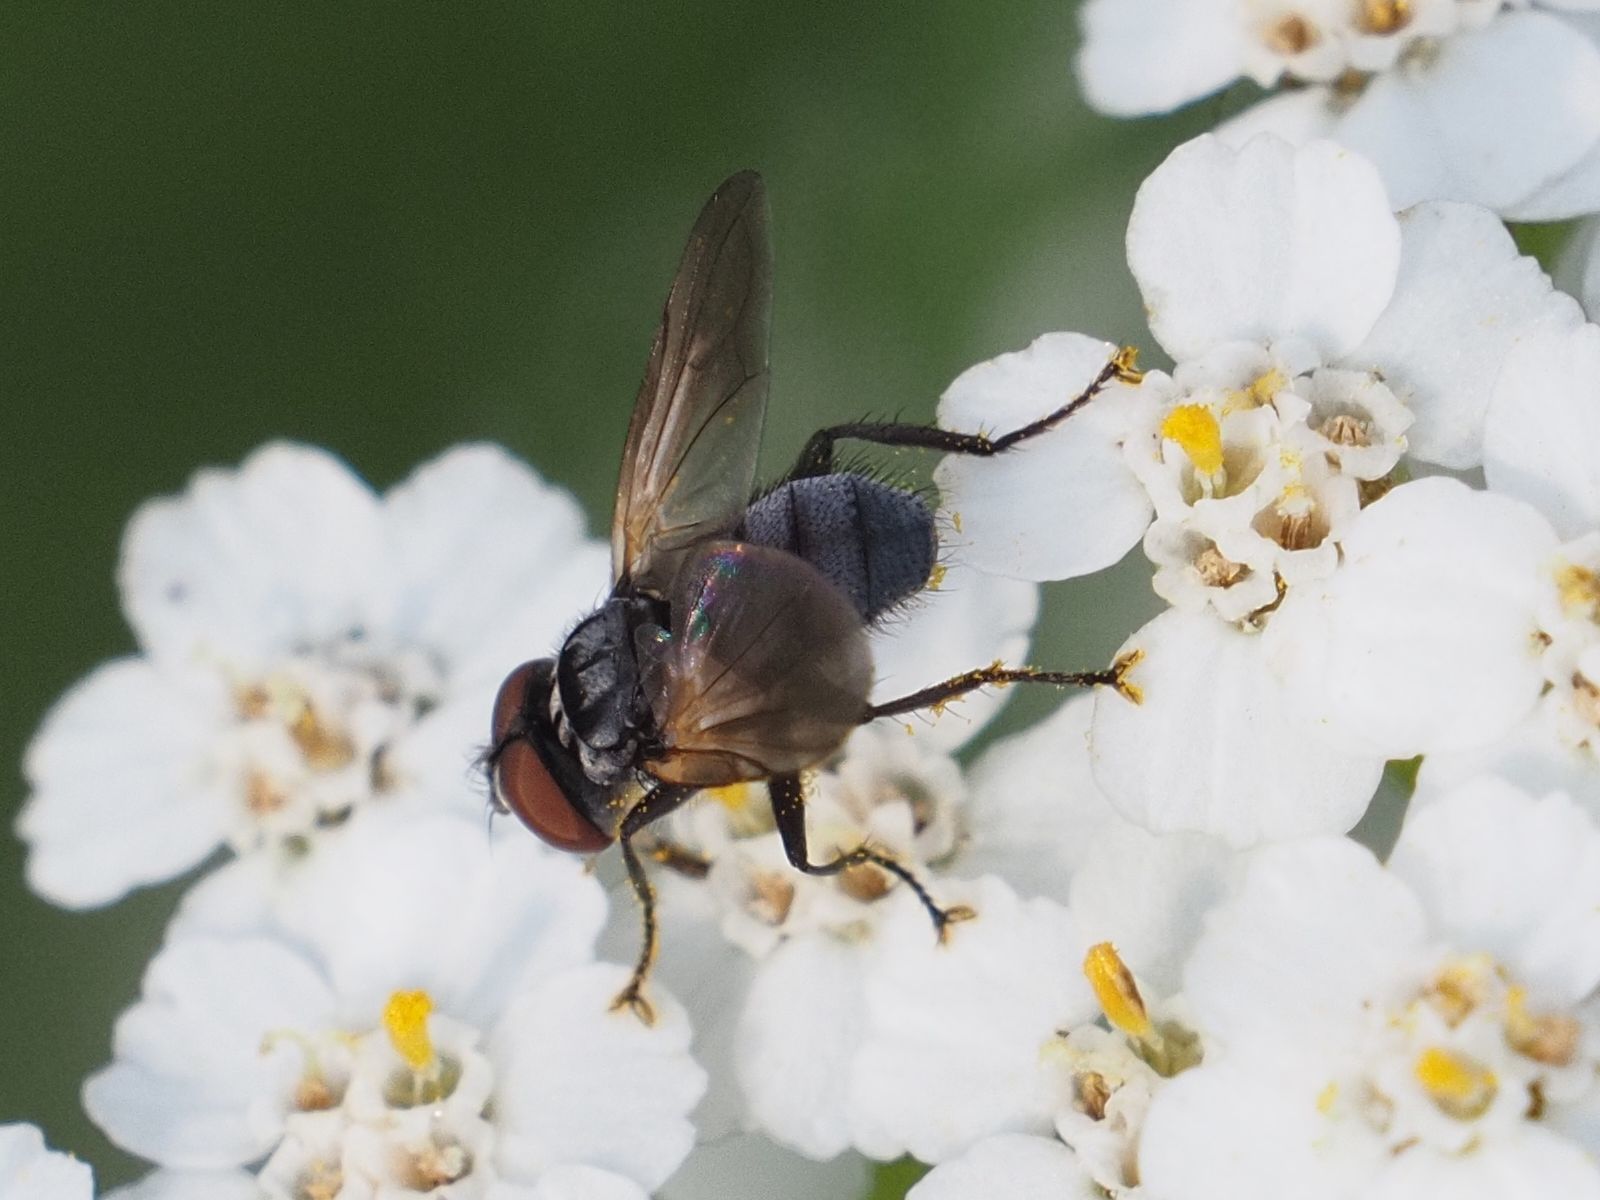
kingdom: Animalia
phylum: Arthropoda
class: Insecta
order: Diptera
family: Tachinidae
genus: Phasia
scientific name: Phasia obesa
